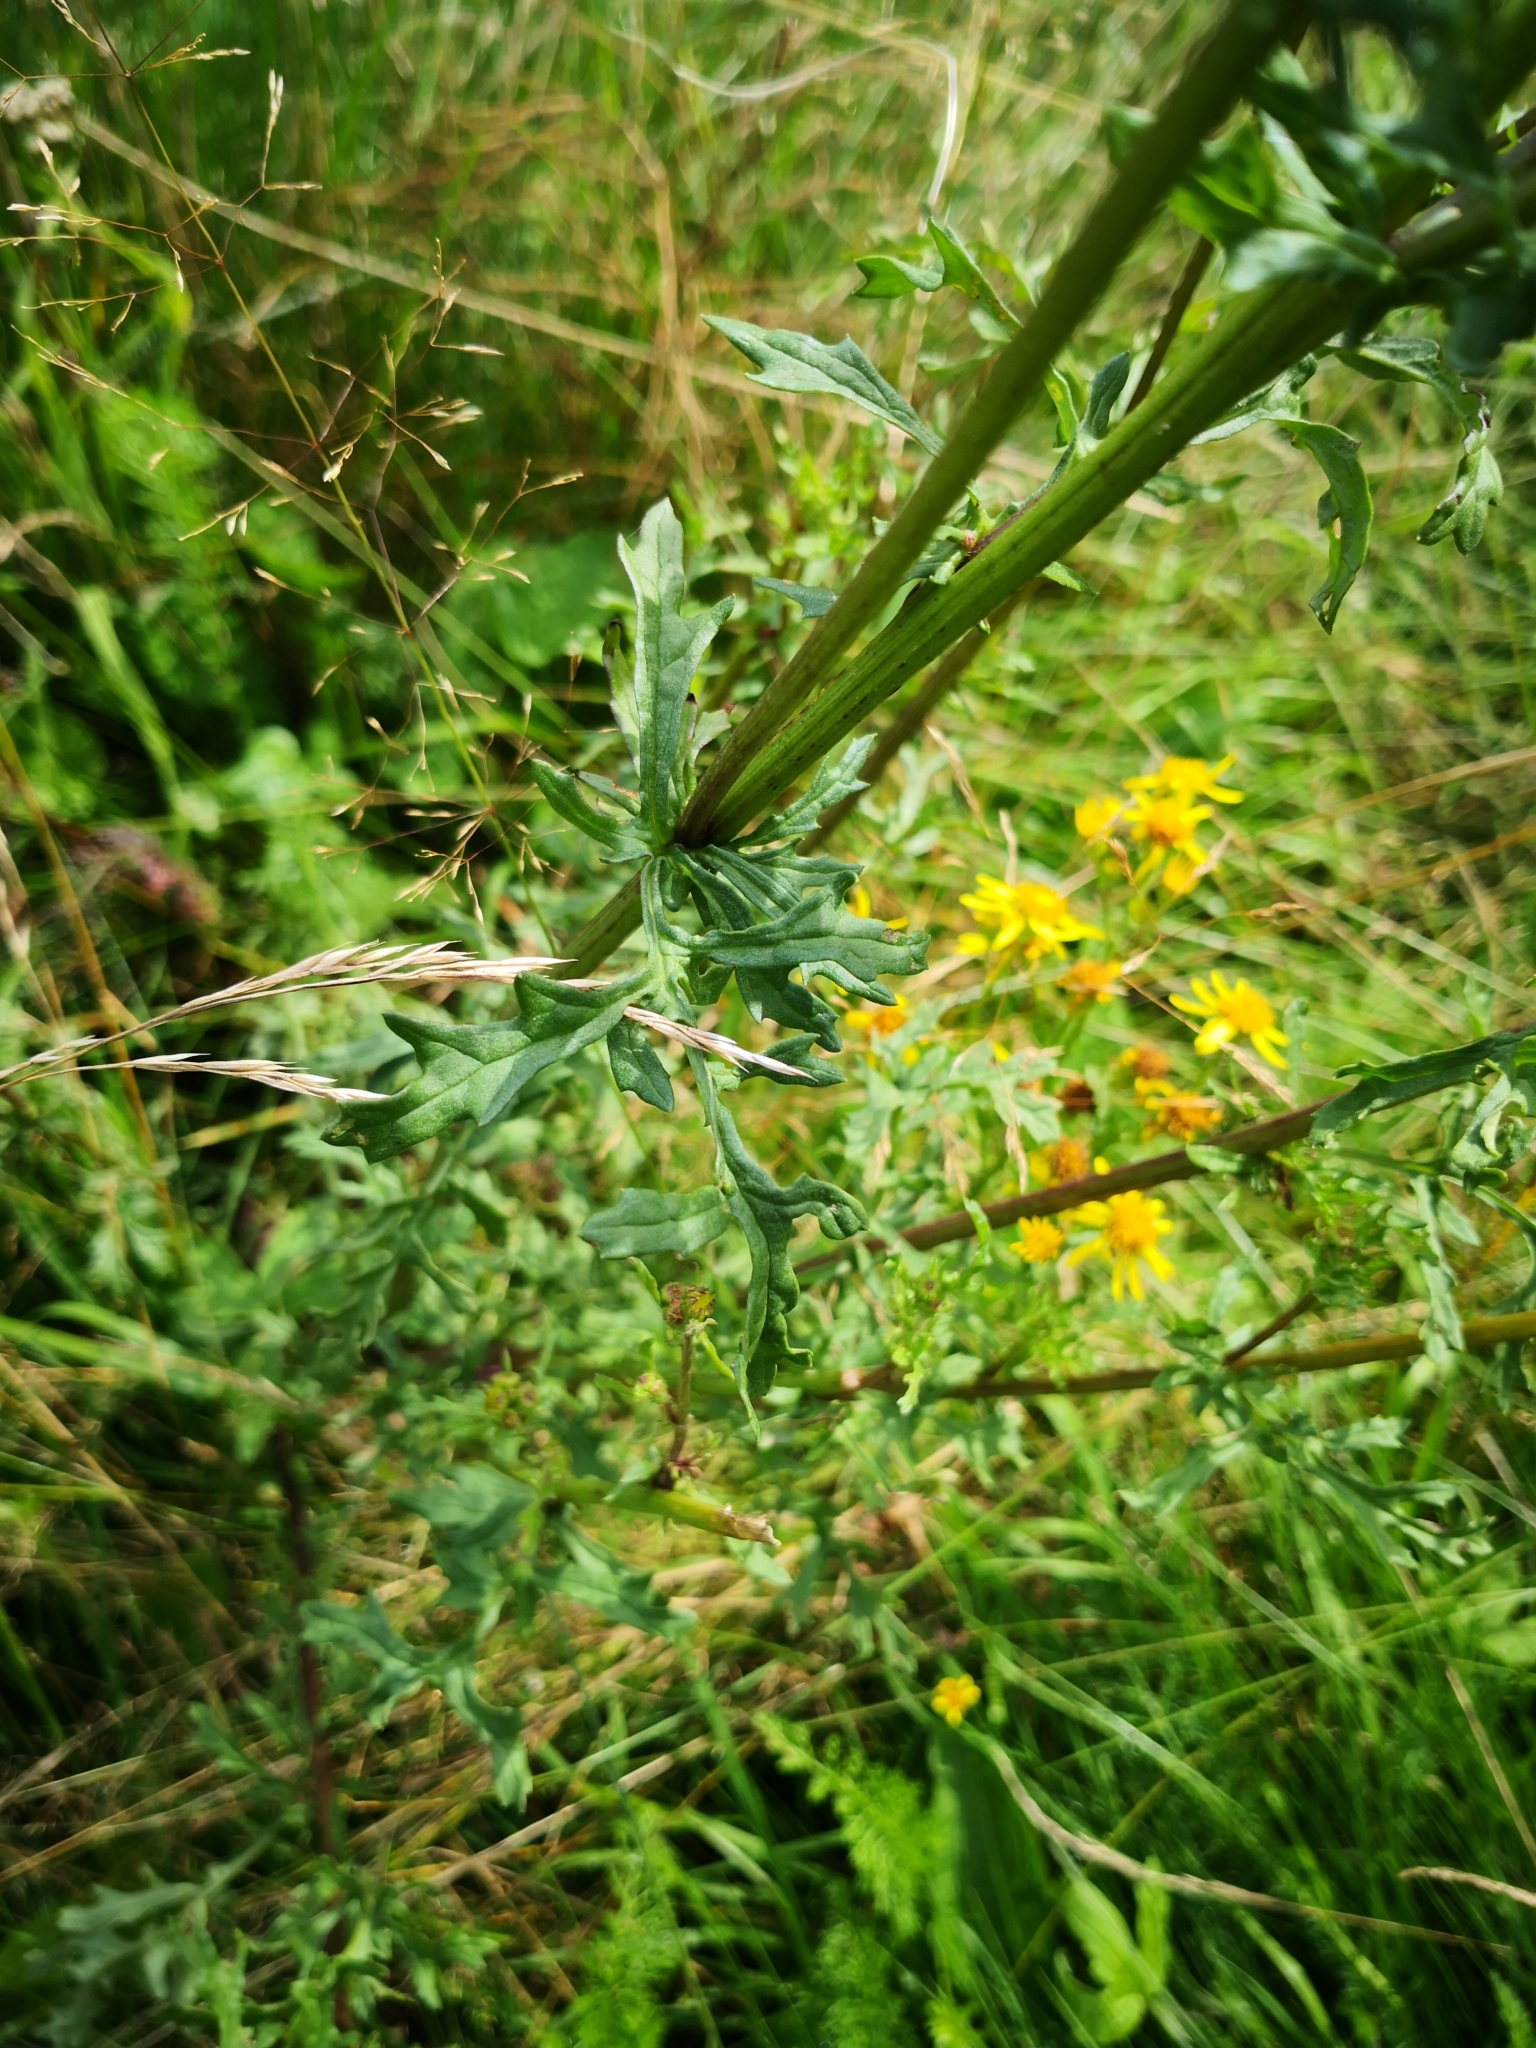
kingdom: Plantae
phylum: Tracheophyta
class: Magnoliopsida
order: Asterales
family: Asteraceae
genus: Jacobaea
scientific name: Jacobaea vulgaris
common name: Stinking willie
